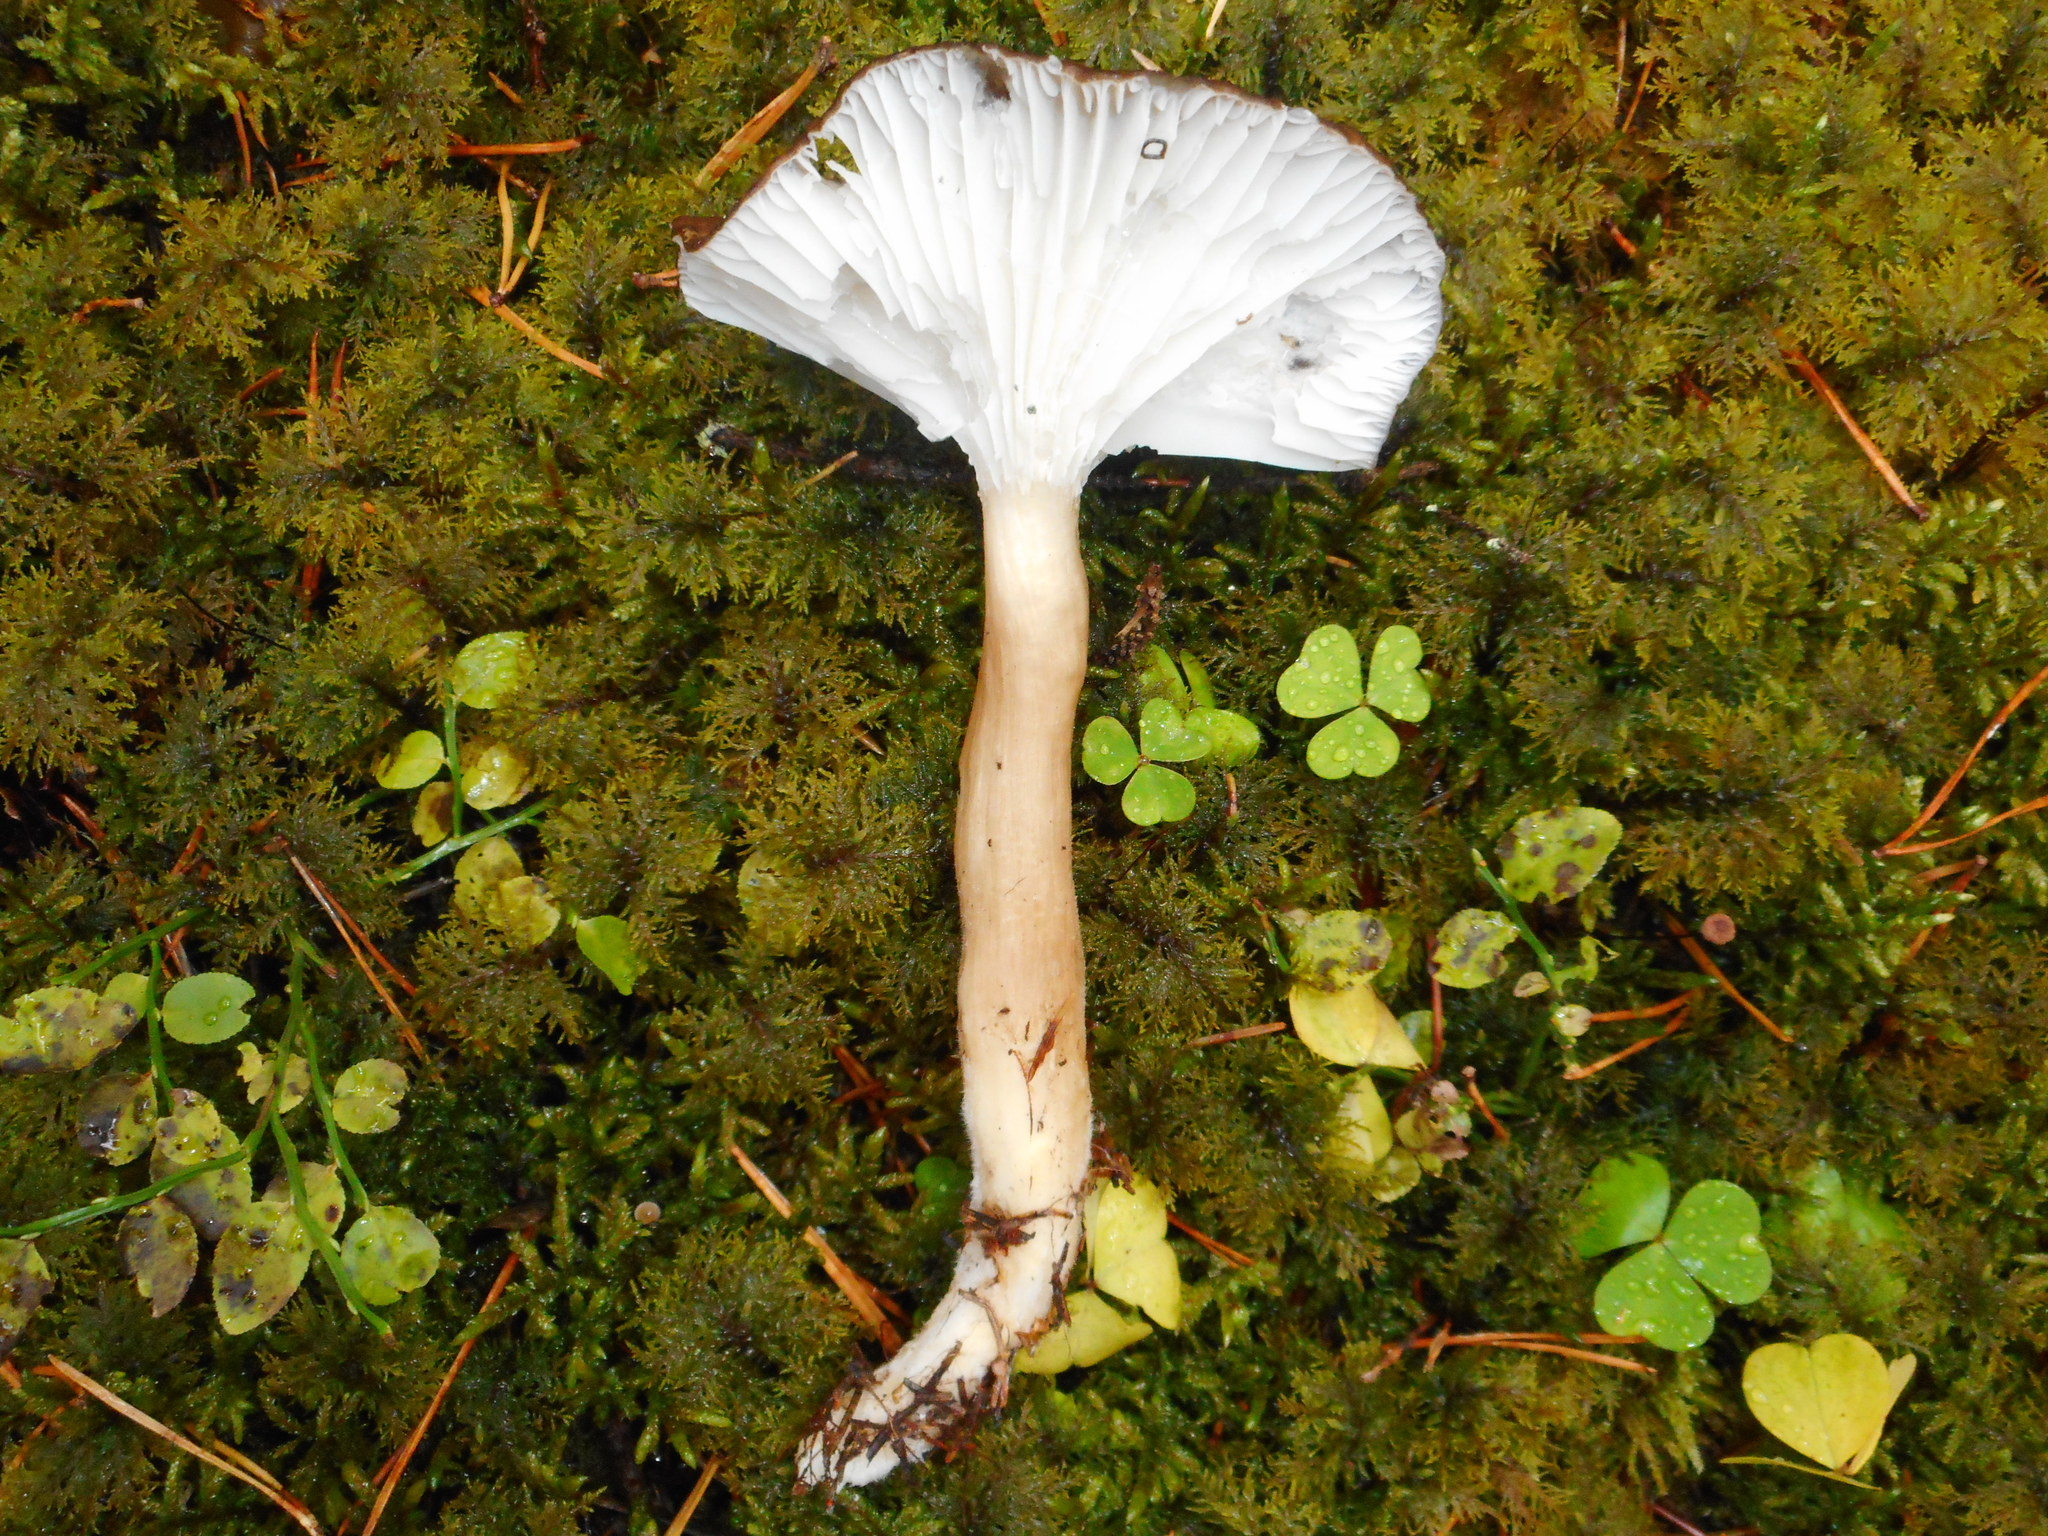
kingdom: Fungi
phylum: Basidiomycota
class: Agaricomycetes
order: Agaricales
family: Hygrophoraceae
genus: Hygrophorus
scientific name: Hygrophorus camarophyllus
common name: Arched woodwax
